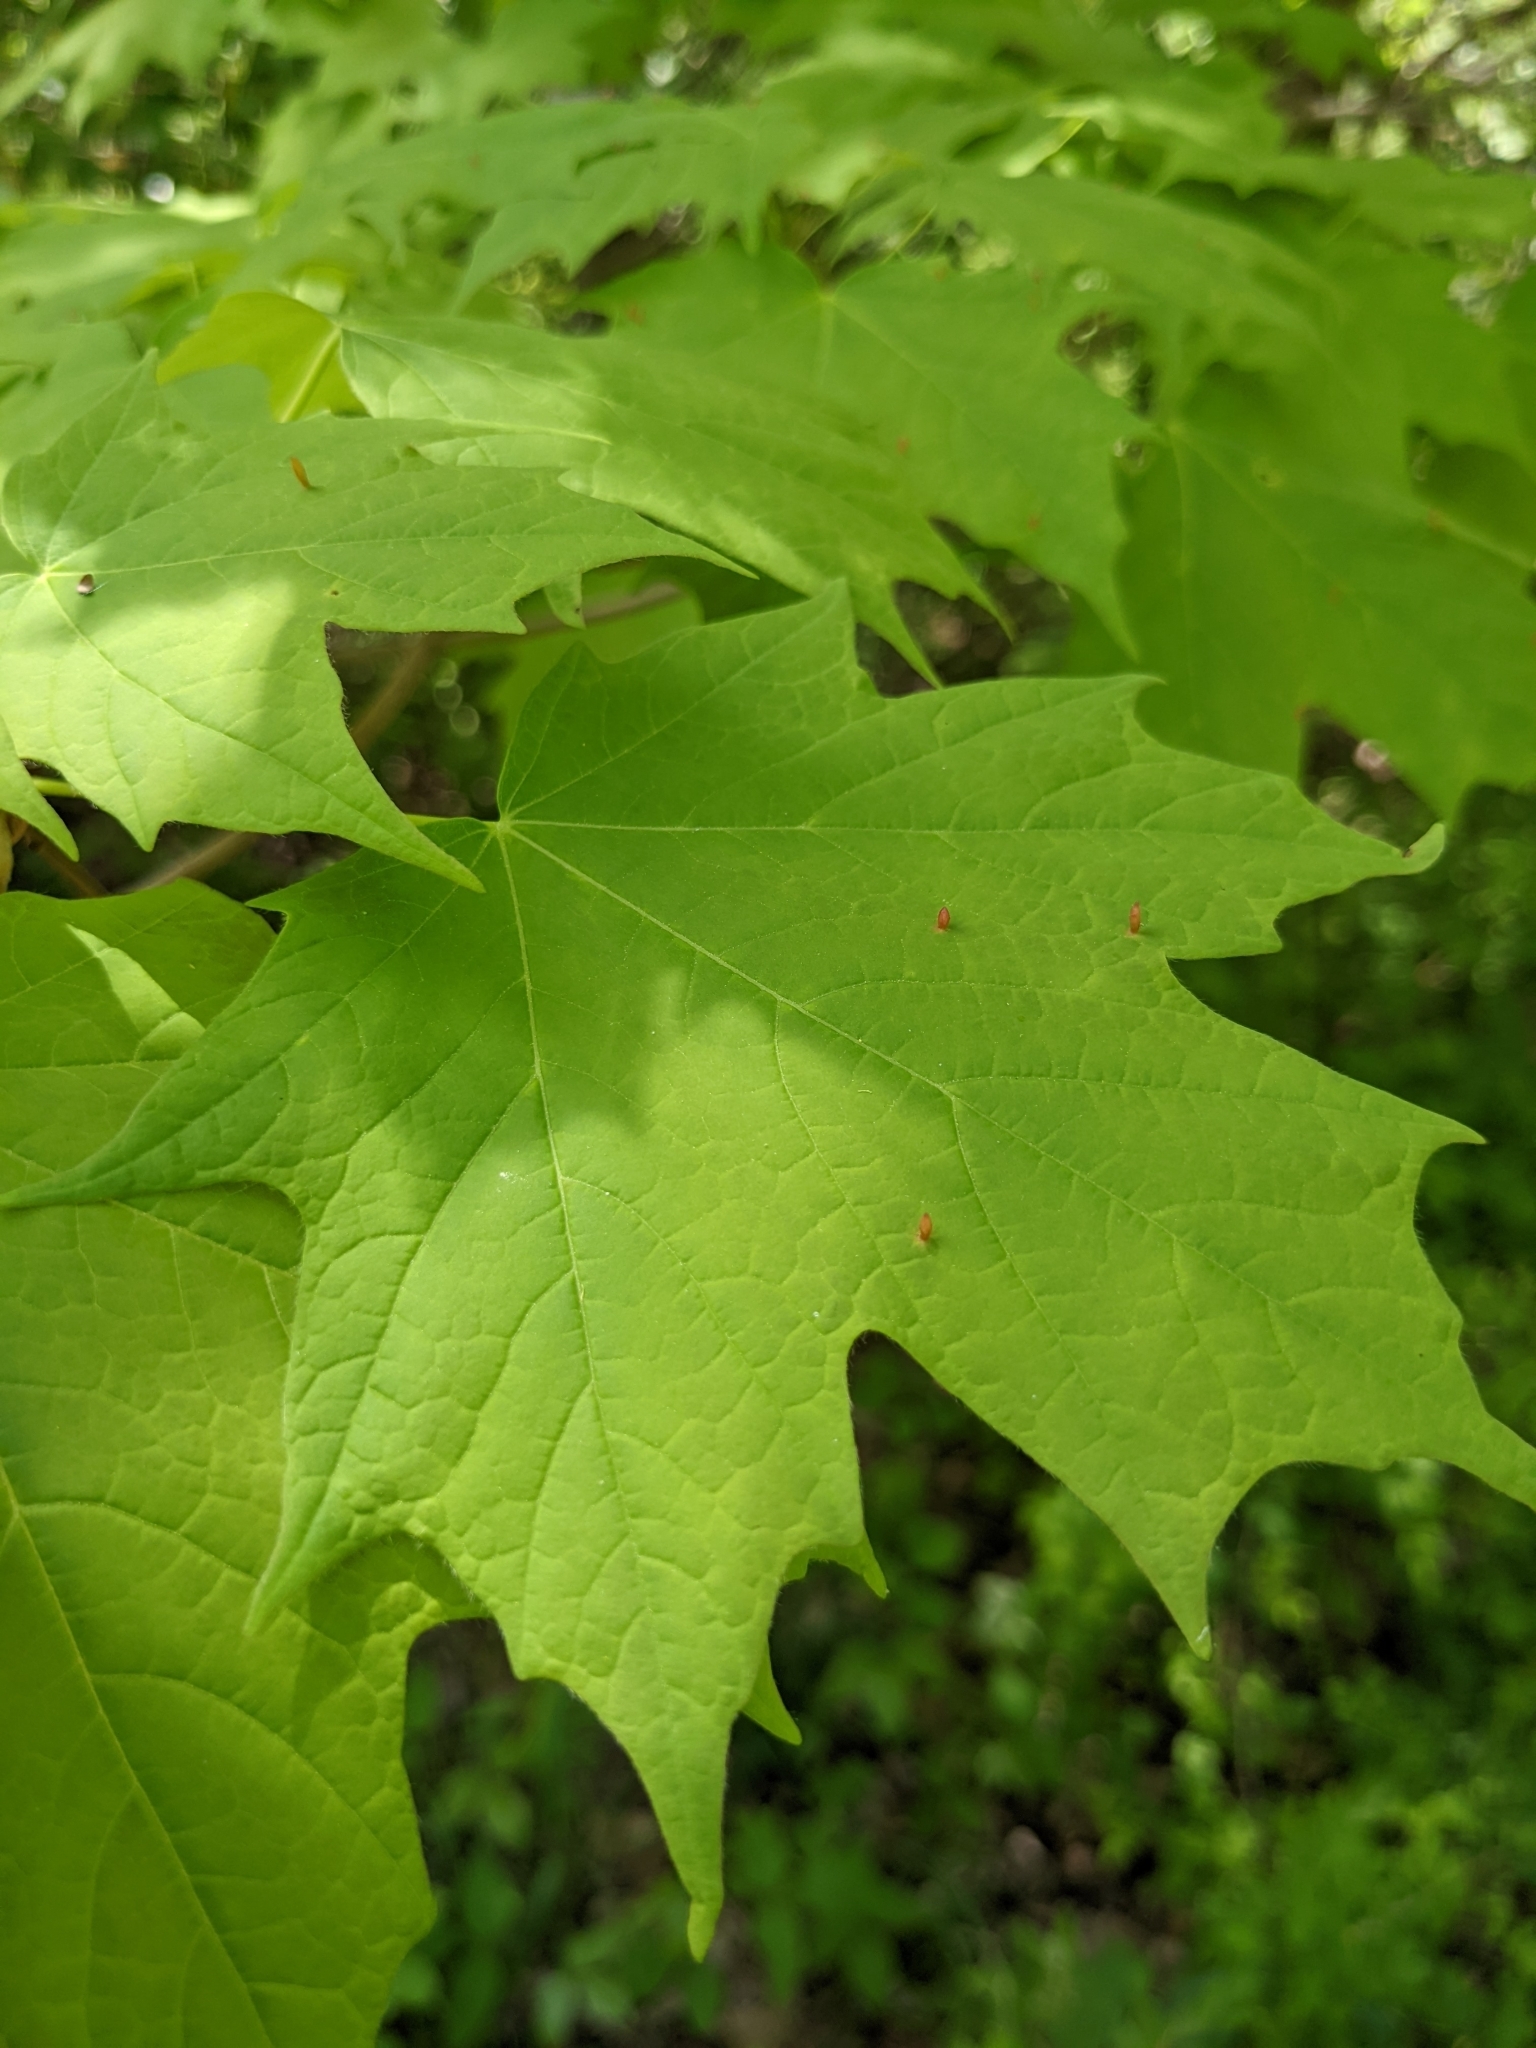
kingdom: Animalia
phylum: Arthropoda
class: Arachnida
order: Trombidiformes
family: Eriophyidae
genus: Vasates
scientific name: Vasates aceriscrumena
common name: Maple spindle gall mite
